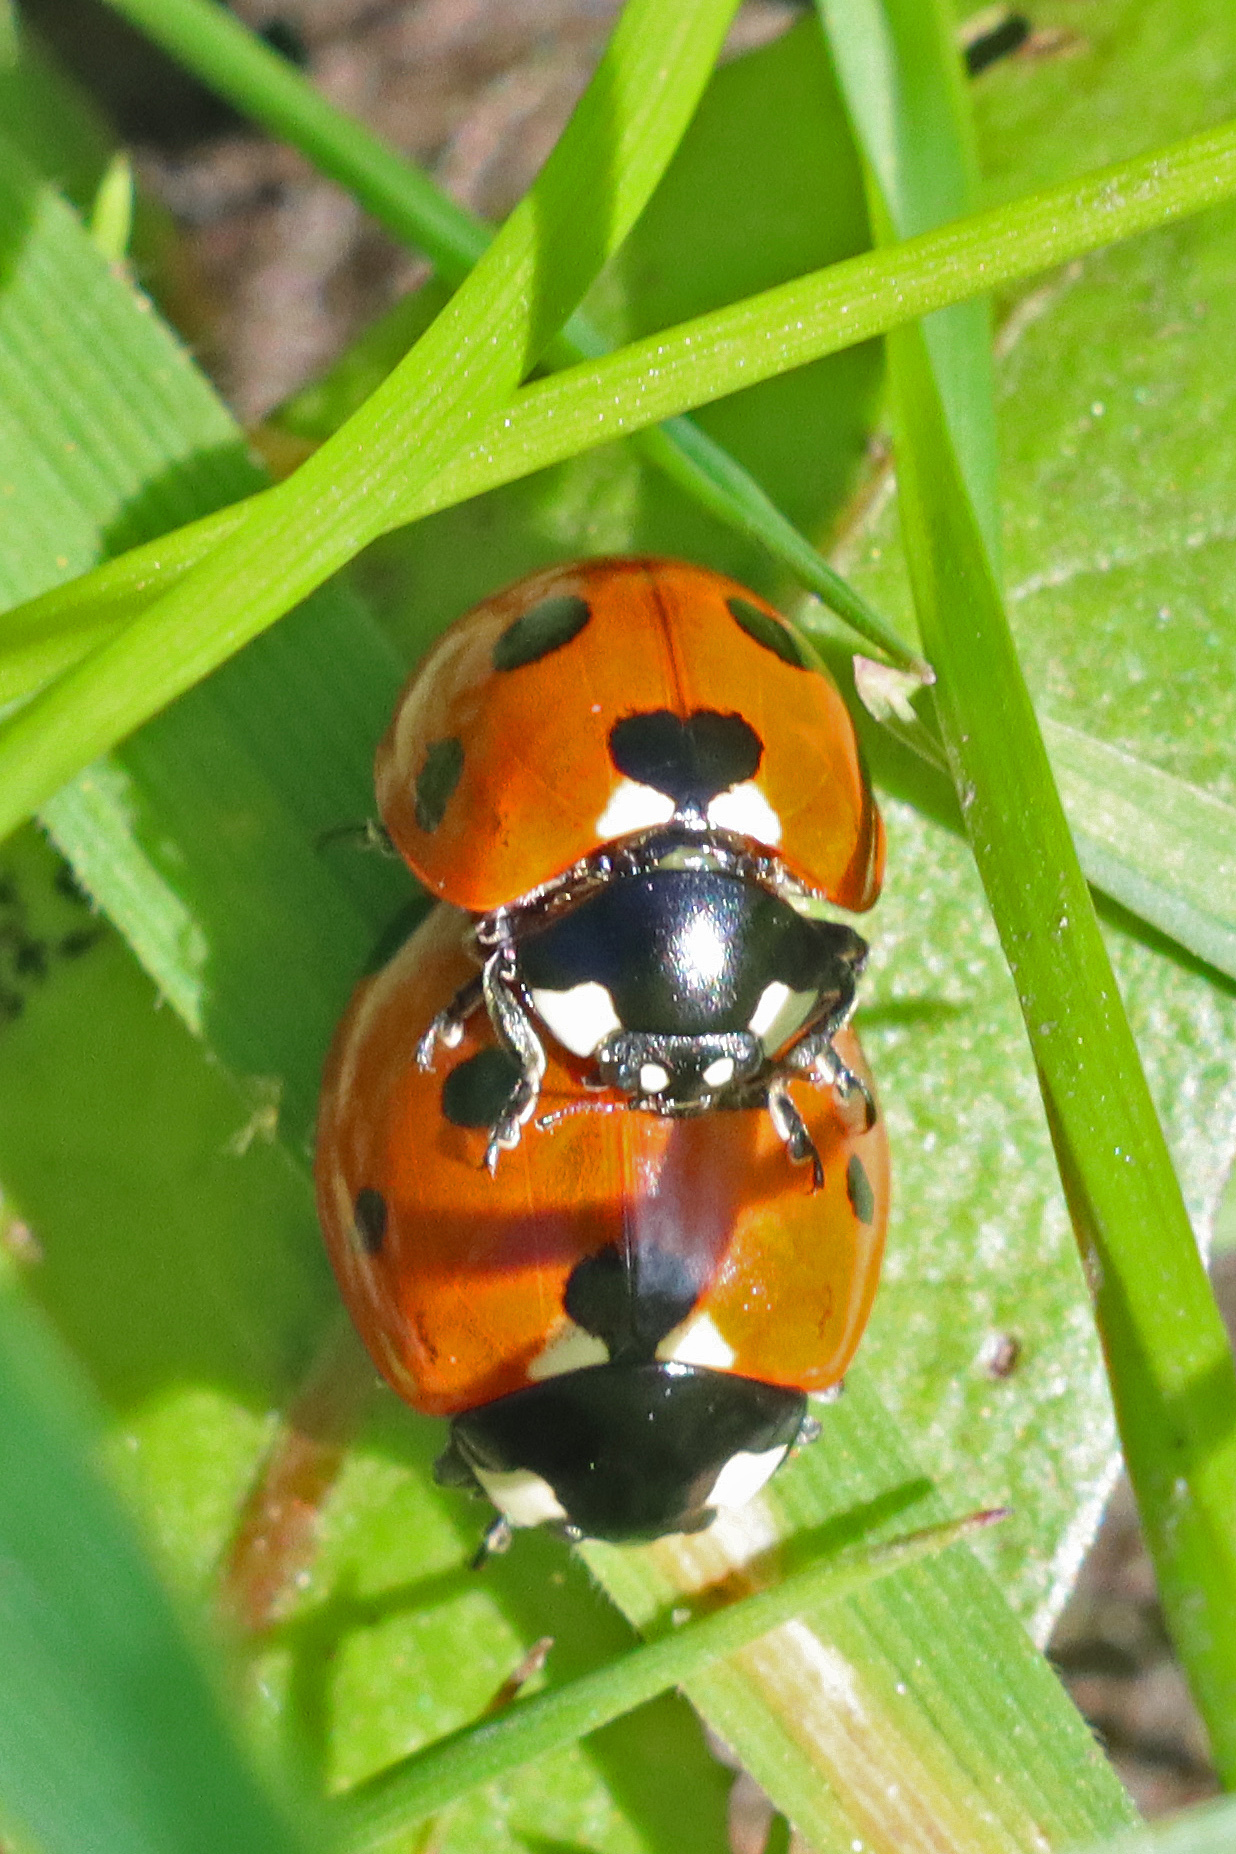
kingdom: Animalia
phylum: Arthropoda
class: Insecta
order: Coleoptera
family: Coccinellidae
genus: Coccinella
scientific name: Coccinella septempunctata
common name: Sevenspotted lady beetle
